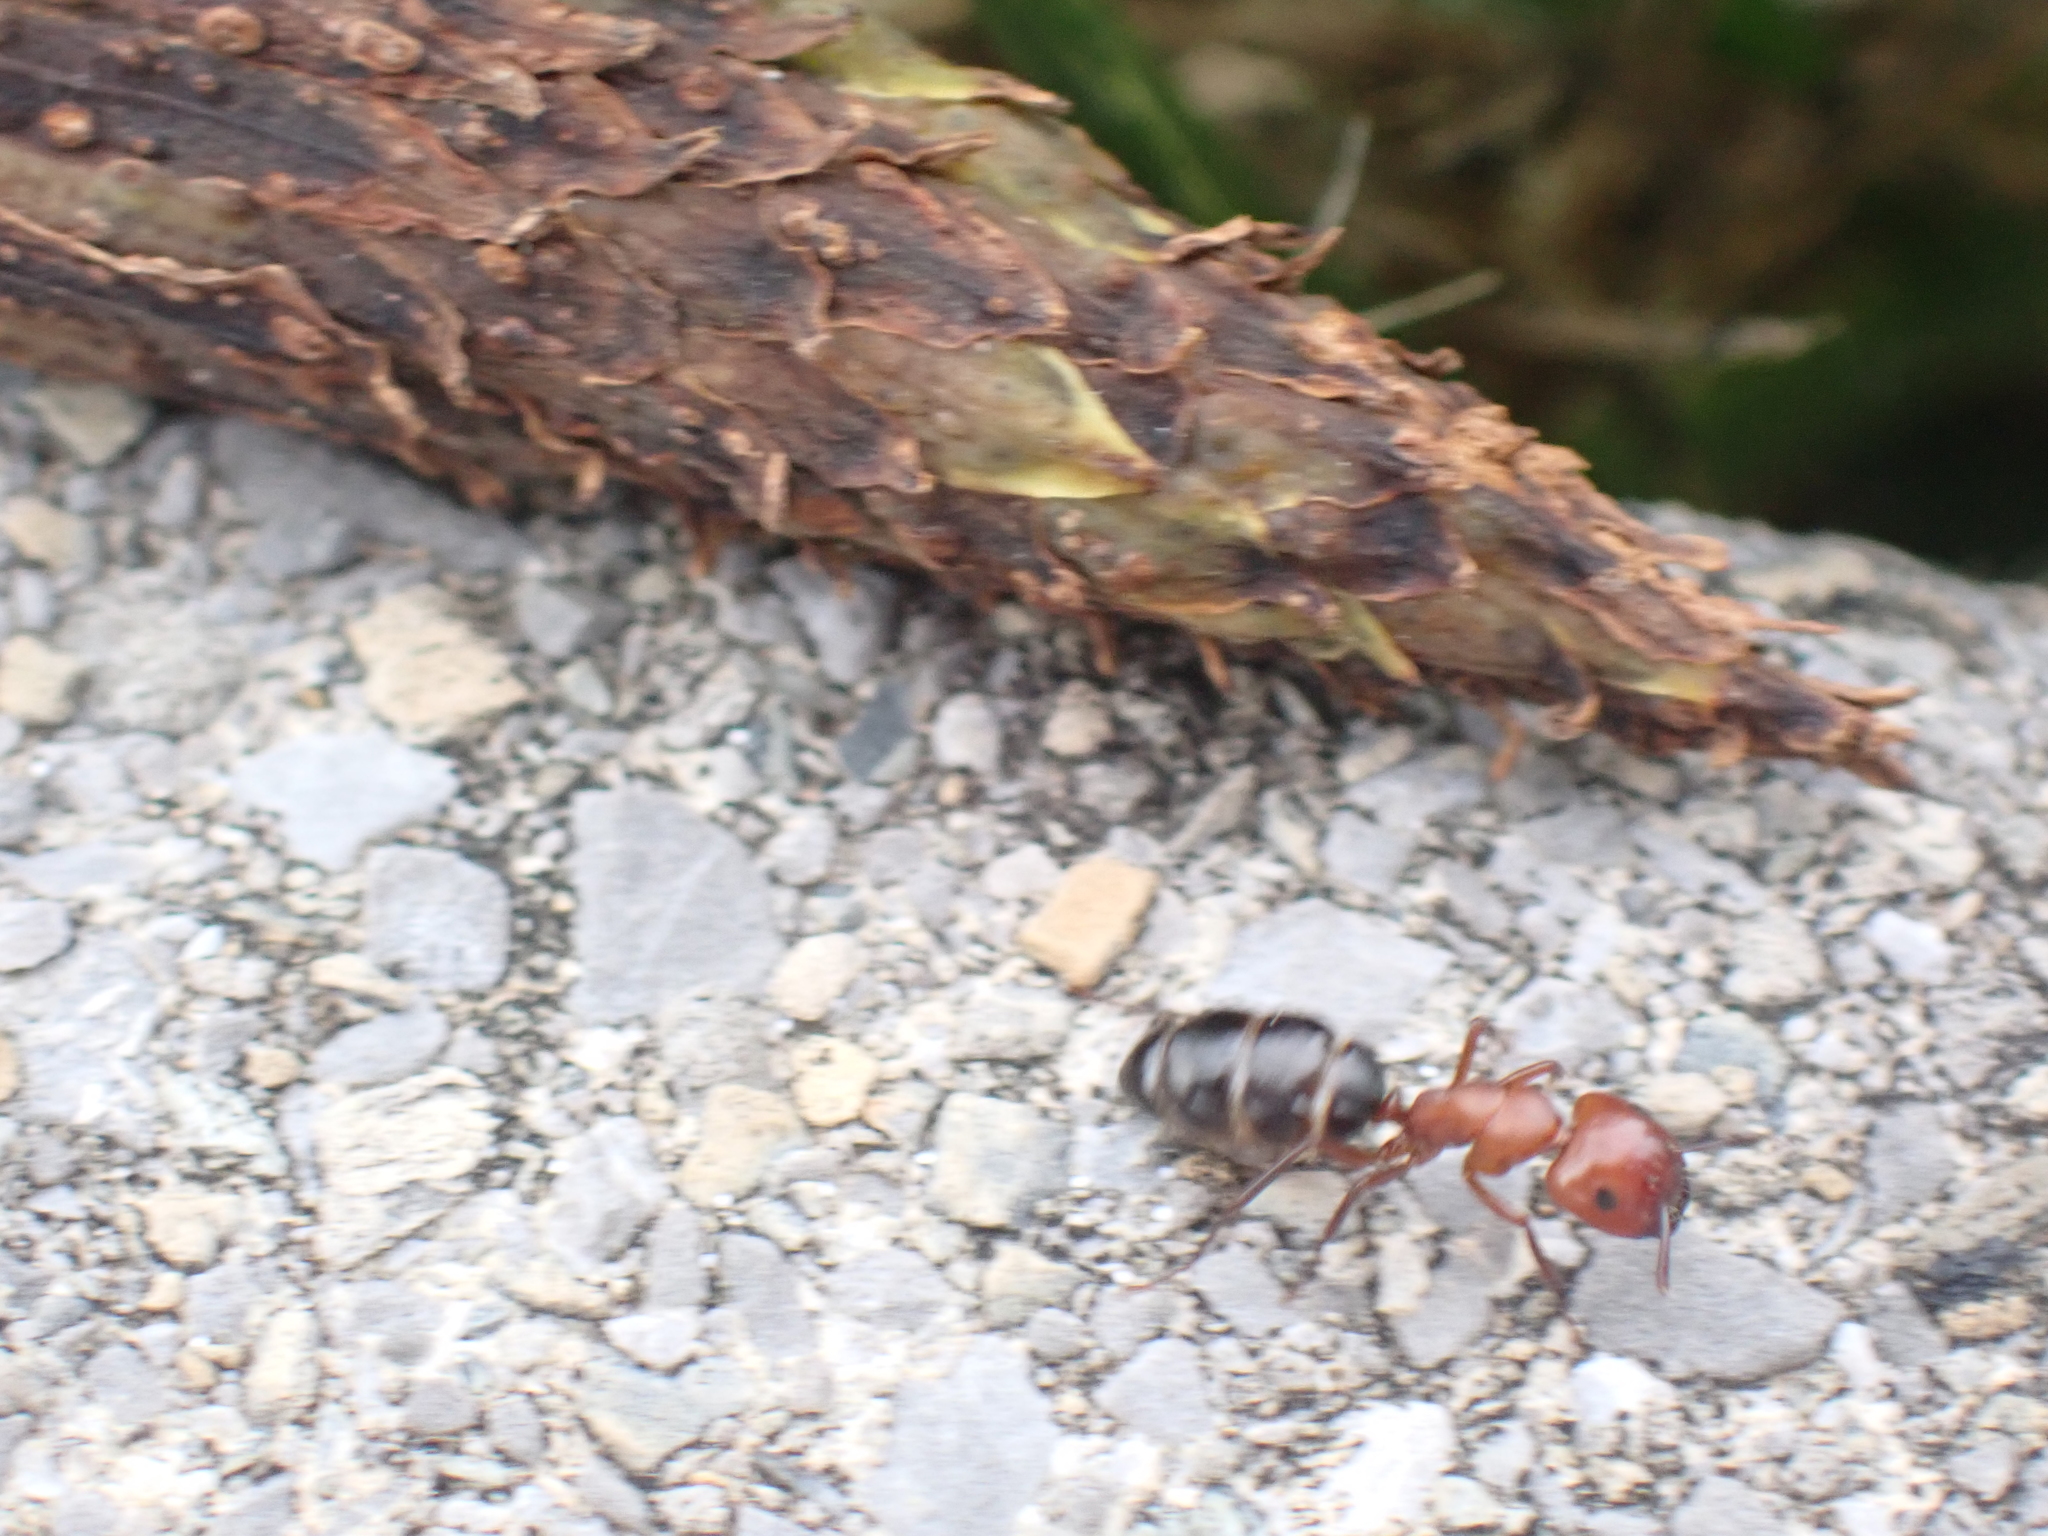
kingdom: Animalia
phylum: Arthropoda
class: Insecta
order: Hymenoptera
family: Formicidae
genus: Camponotus
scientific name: Camponotus decipiens
